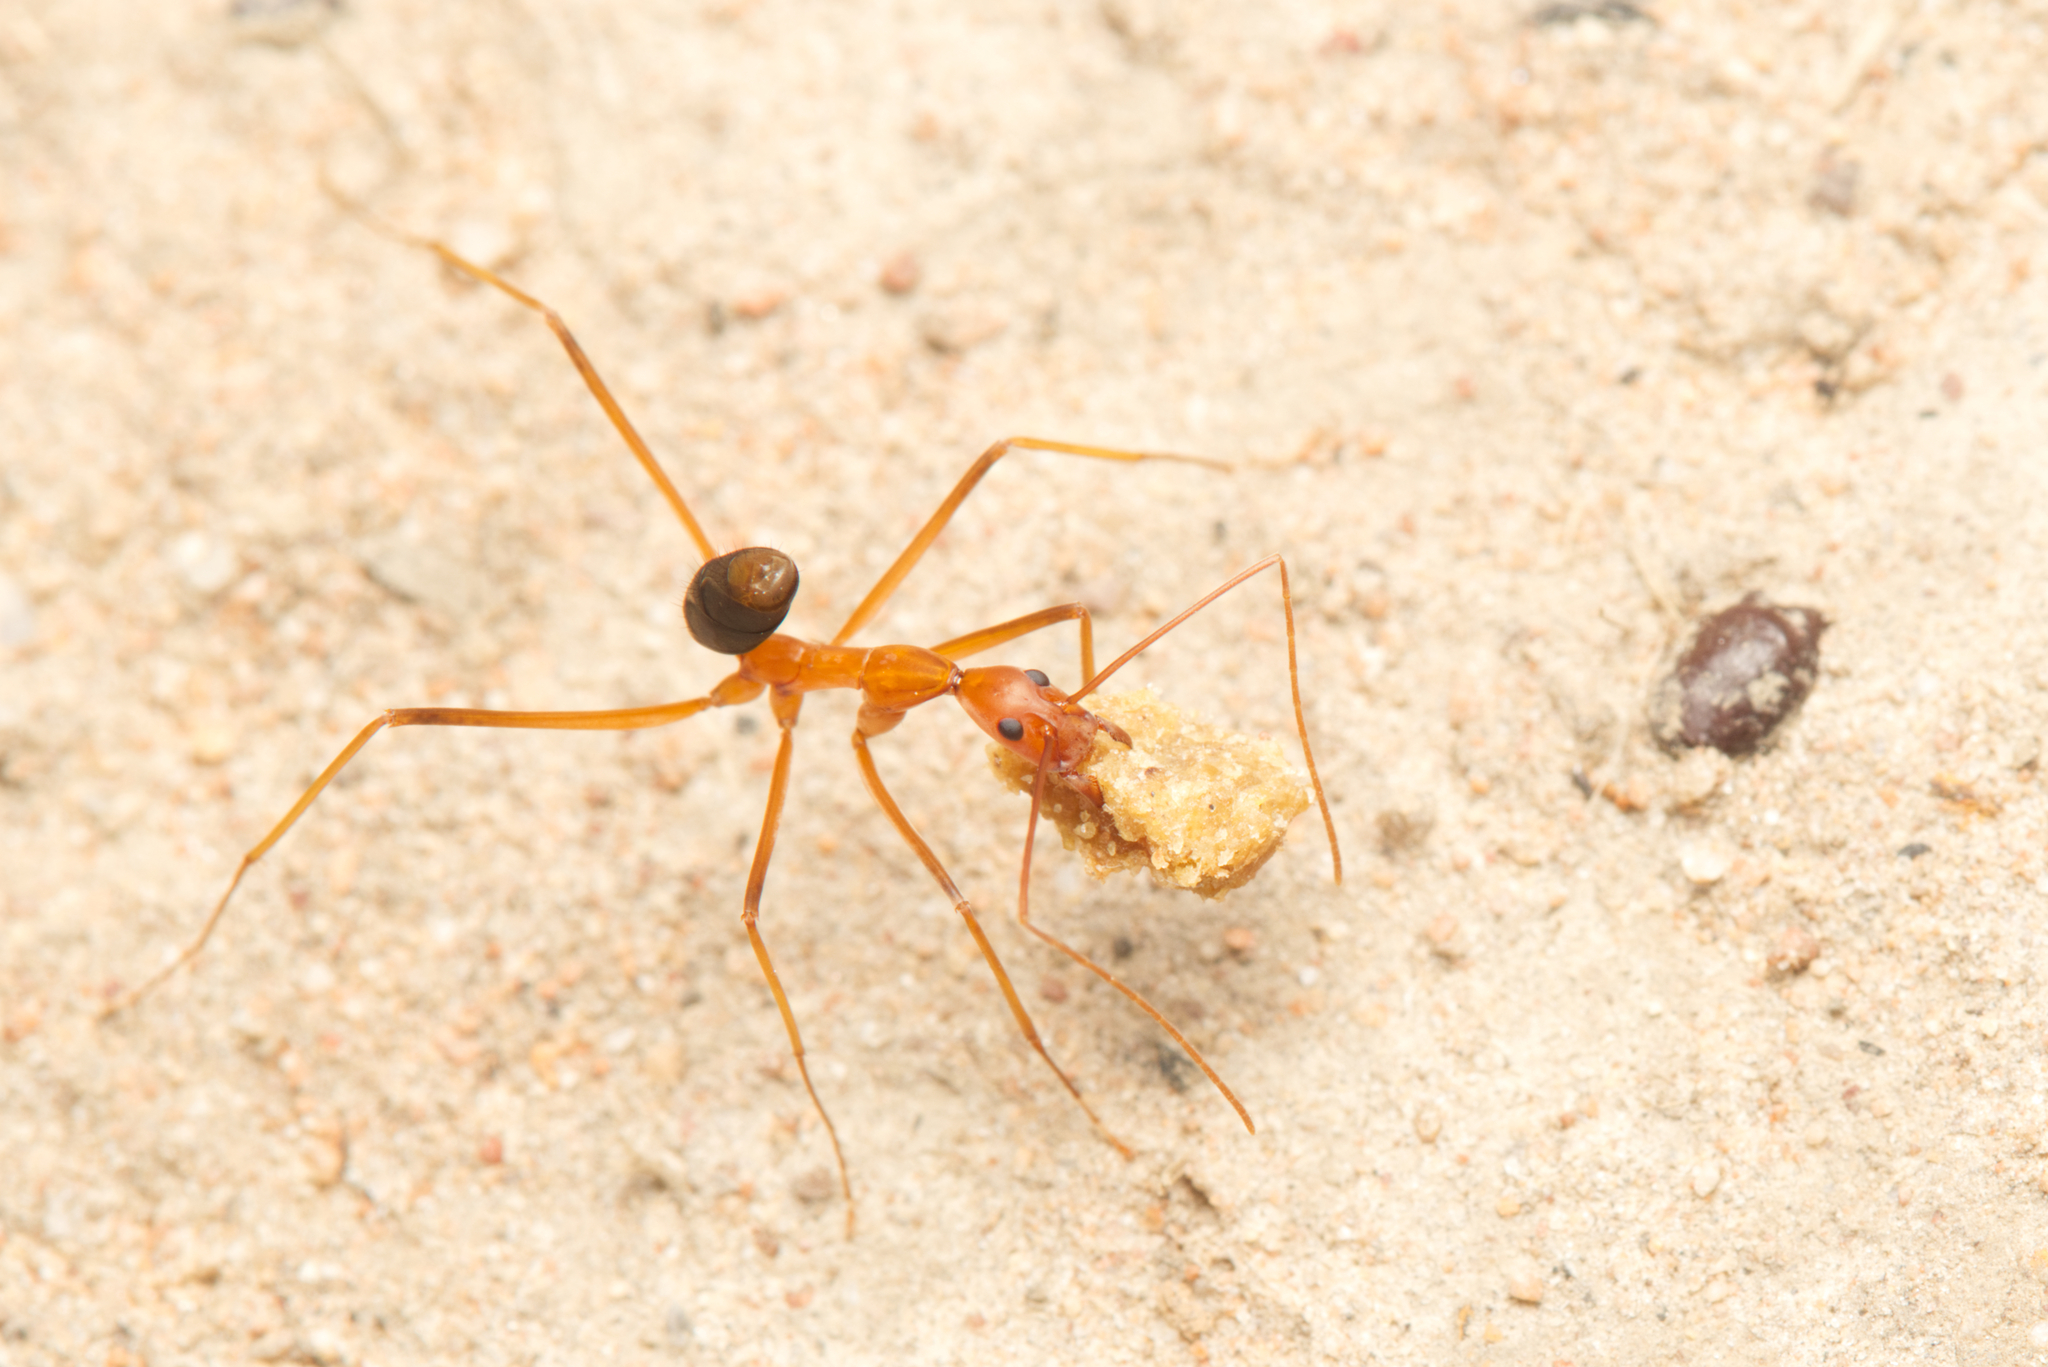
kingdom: Animalia
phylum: Arthropoda
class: Insecta
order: Hymenoptera
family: Formicidae
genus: Leptomyrmex
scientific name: Leptomyrmex rufipes
